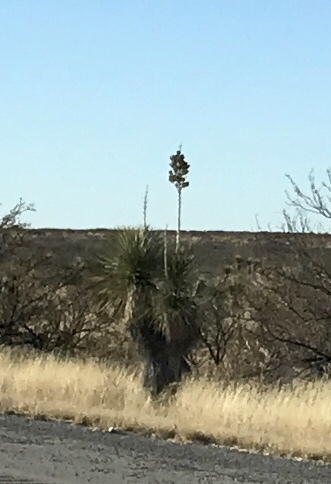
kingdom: Plantae
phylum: Tracheophyta
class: Liliopsida
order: Asparagales
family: Asparagaceae
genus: Yucca
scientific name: Yucca elata
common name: Palmella
